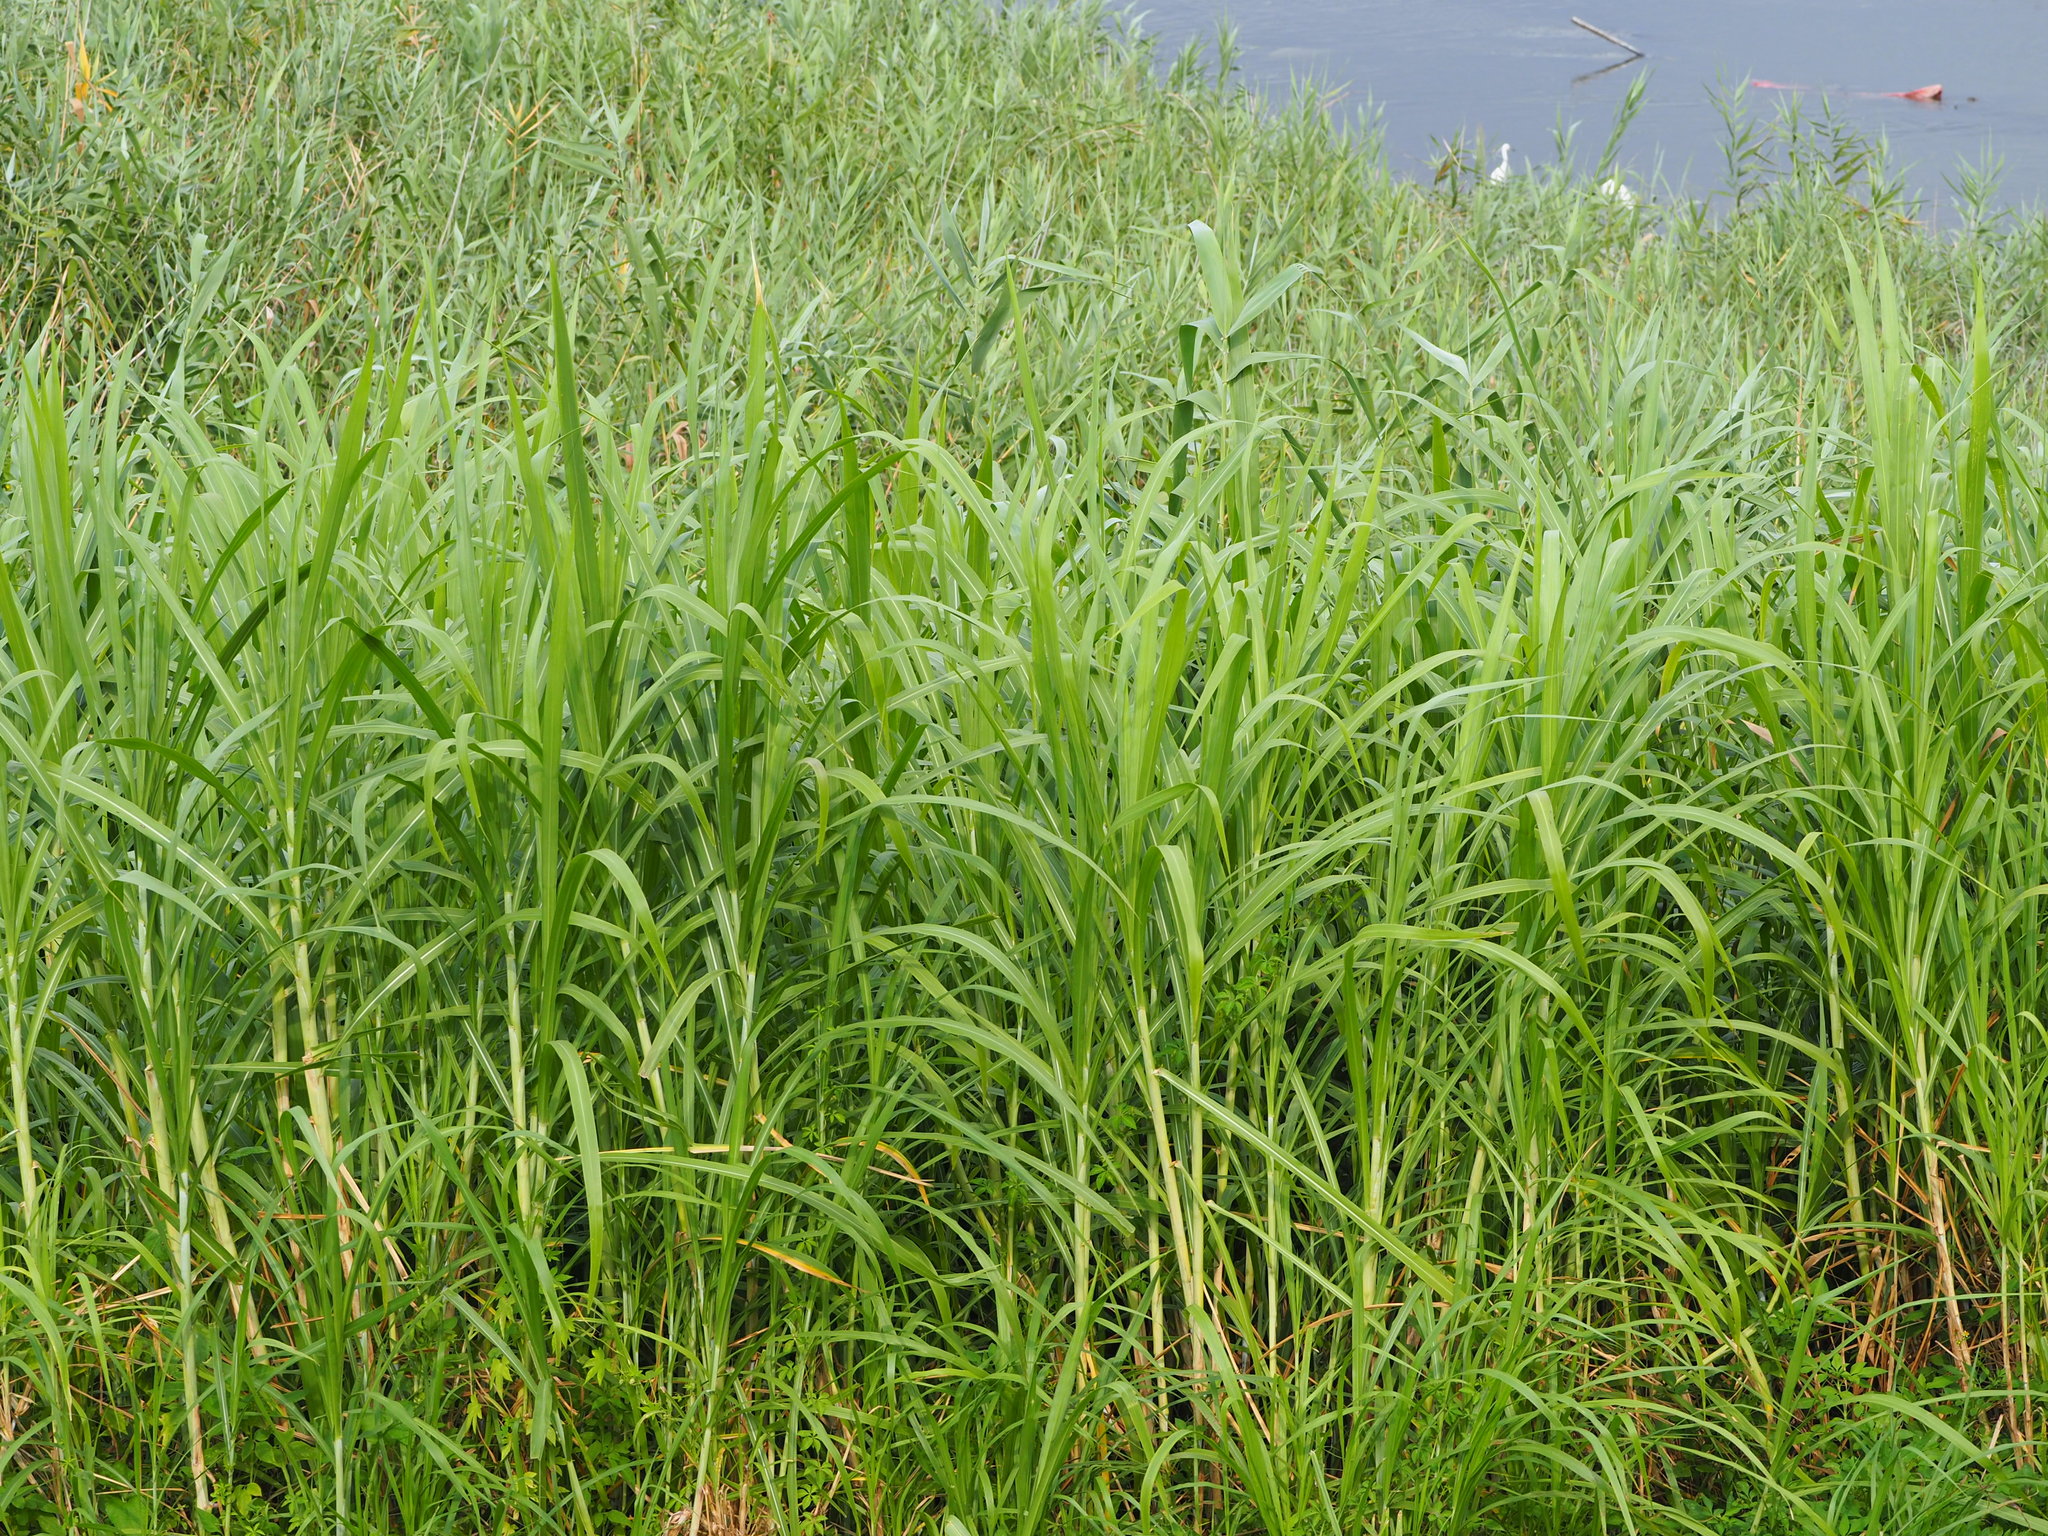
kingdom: Plantae
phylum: Tracheophyta
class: Liliopsida
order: Poales
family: Poaceae
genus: Cenchrus
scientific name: Cenchrus purpureus
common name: Elephant grass
